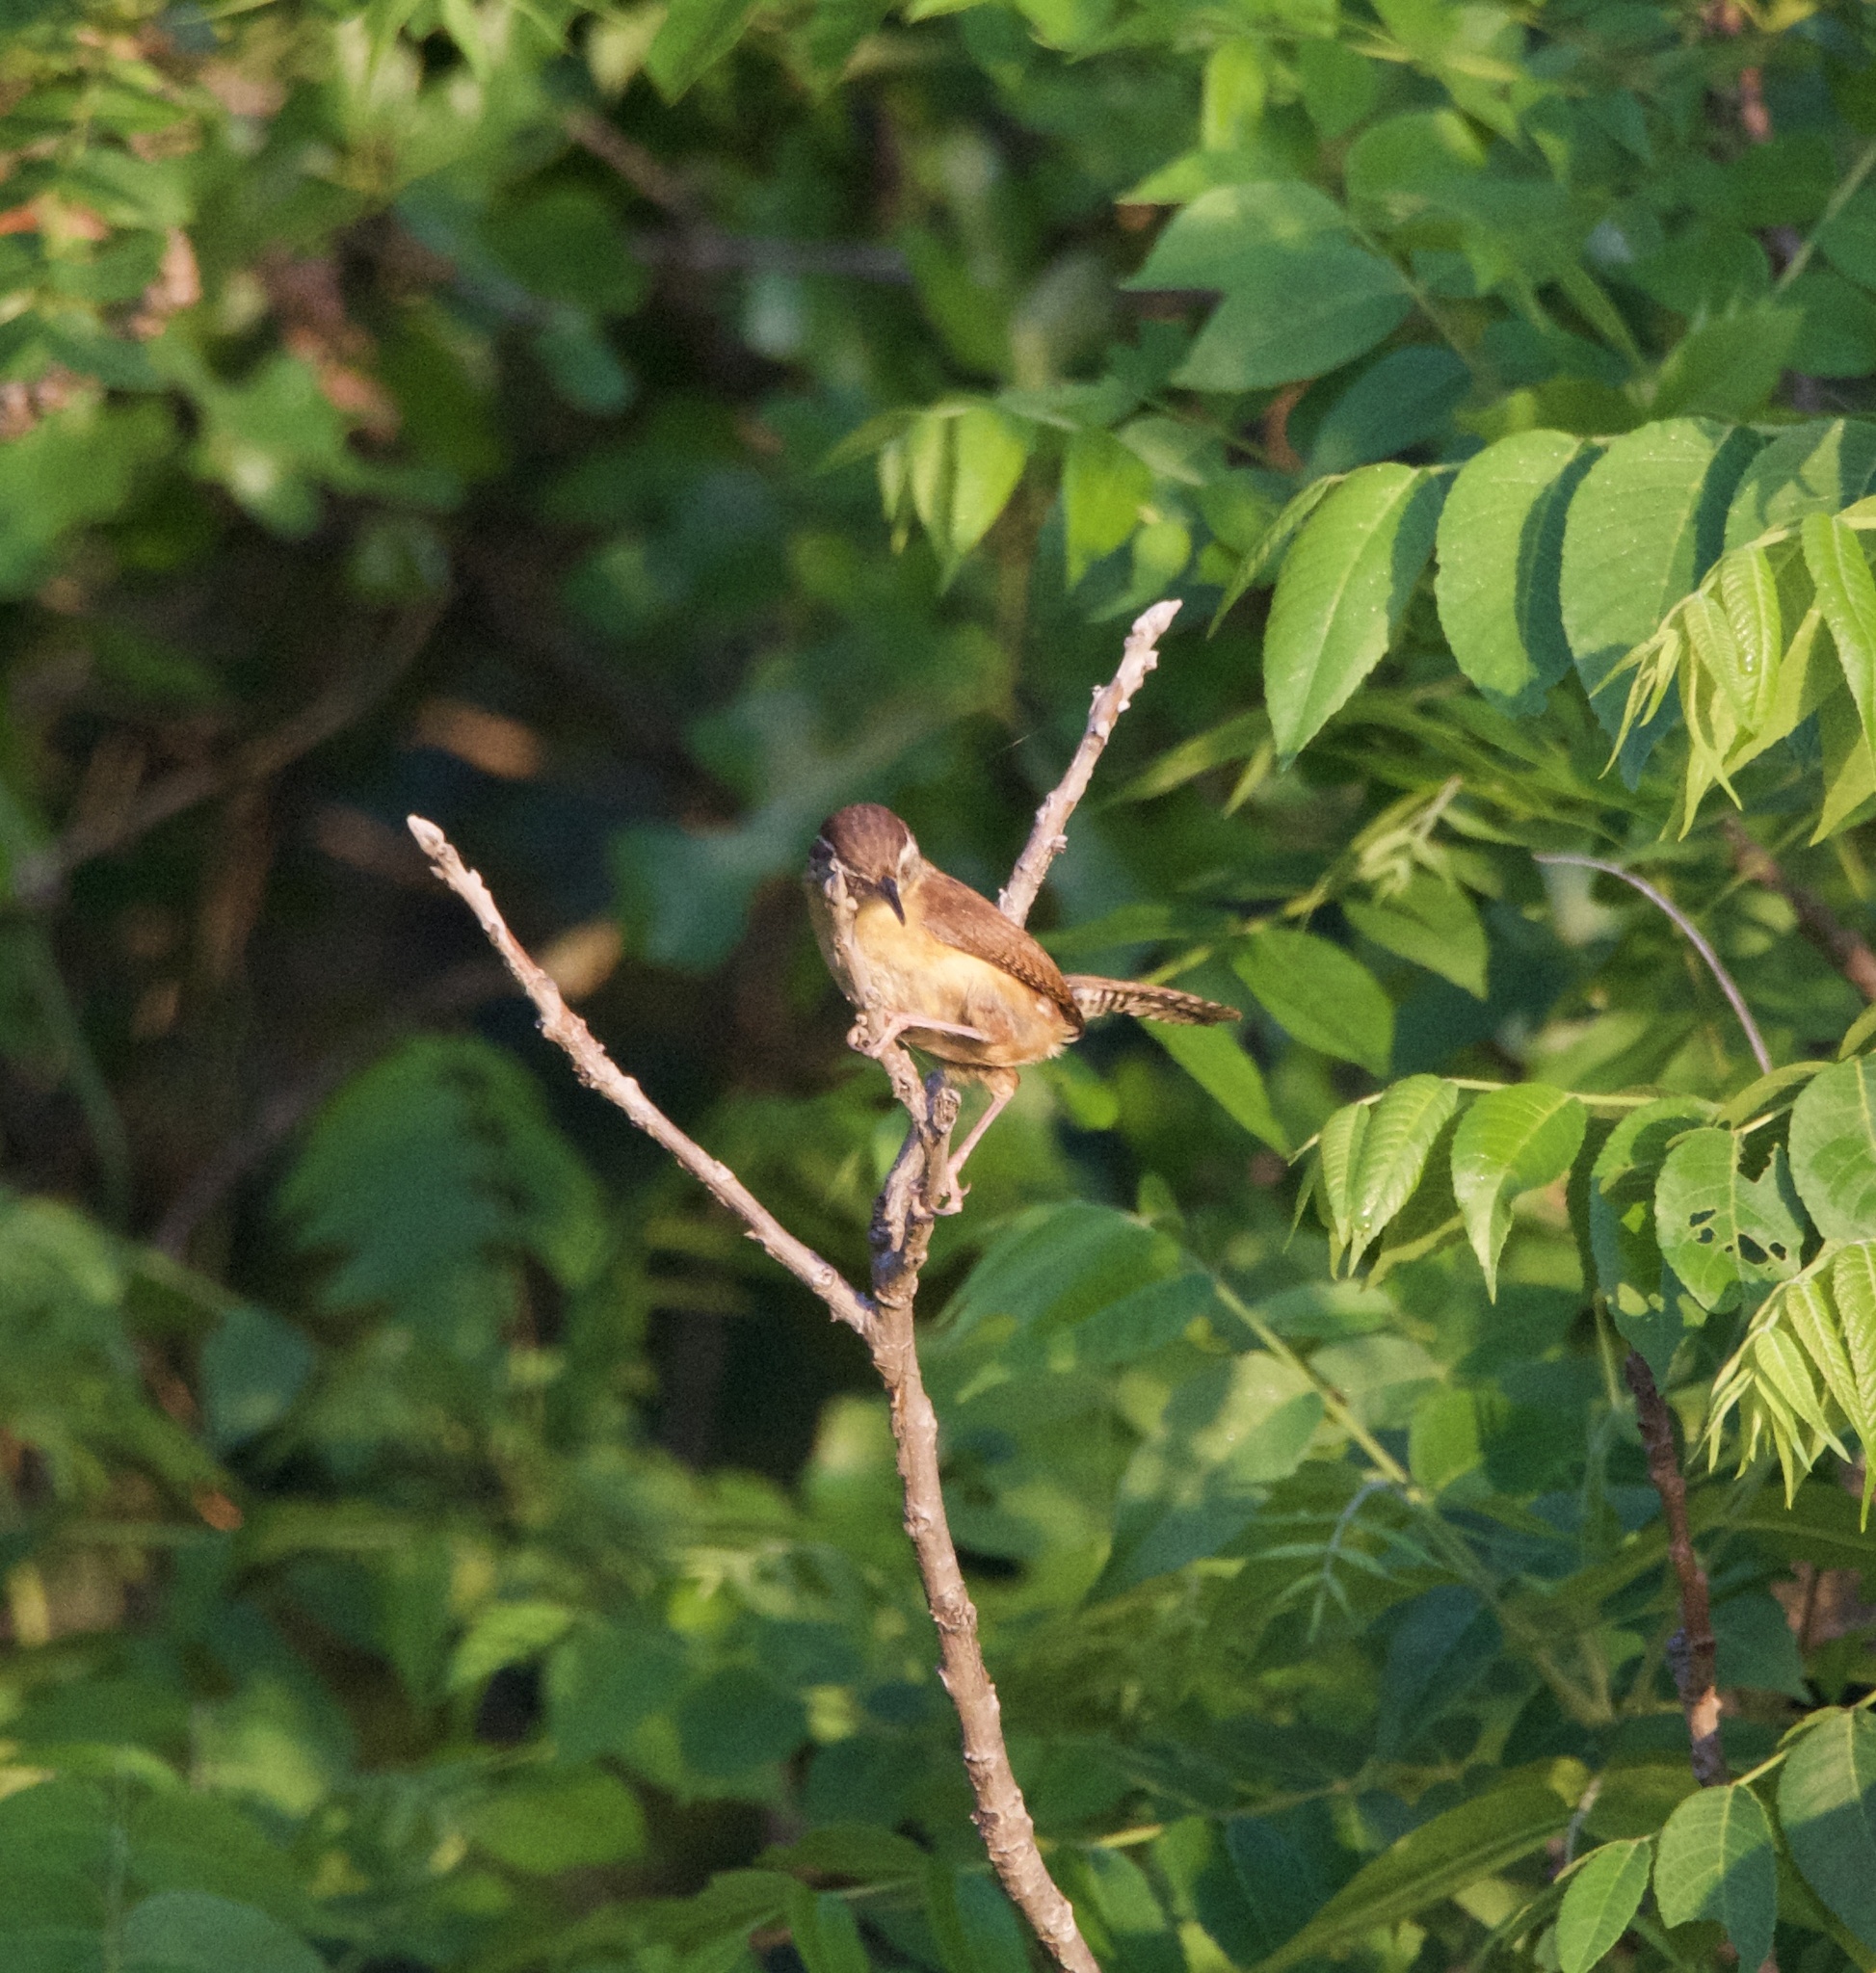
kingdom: Animalia
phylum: Chordata
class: Aves
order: Passeriformes
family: Troglodytidae
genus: Thryothorus
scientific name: Thryothorus ludovicianus
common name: Carolina wren
